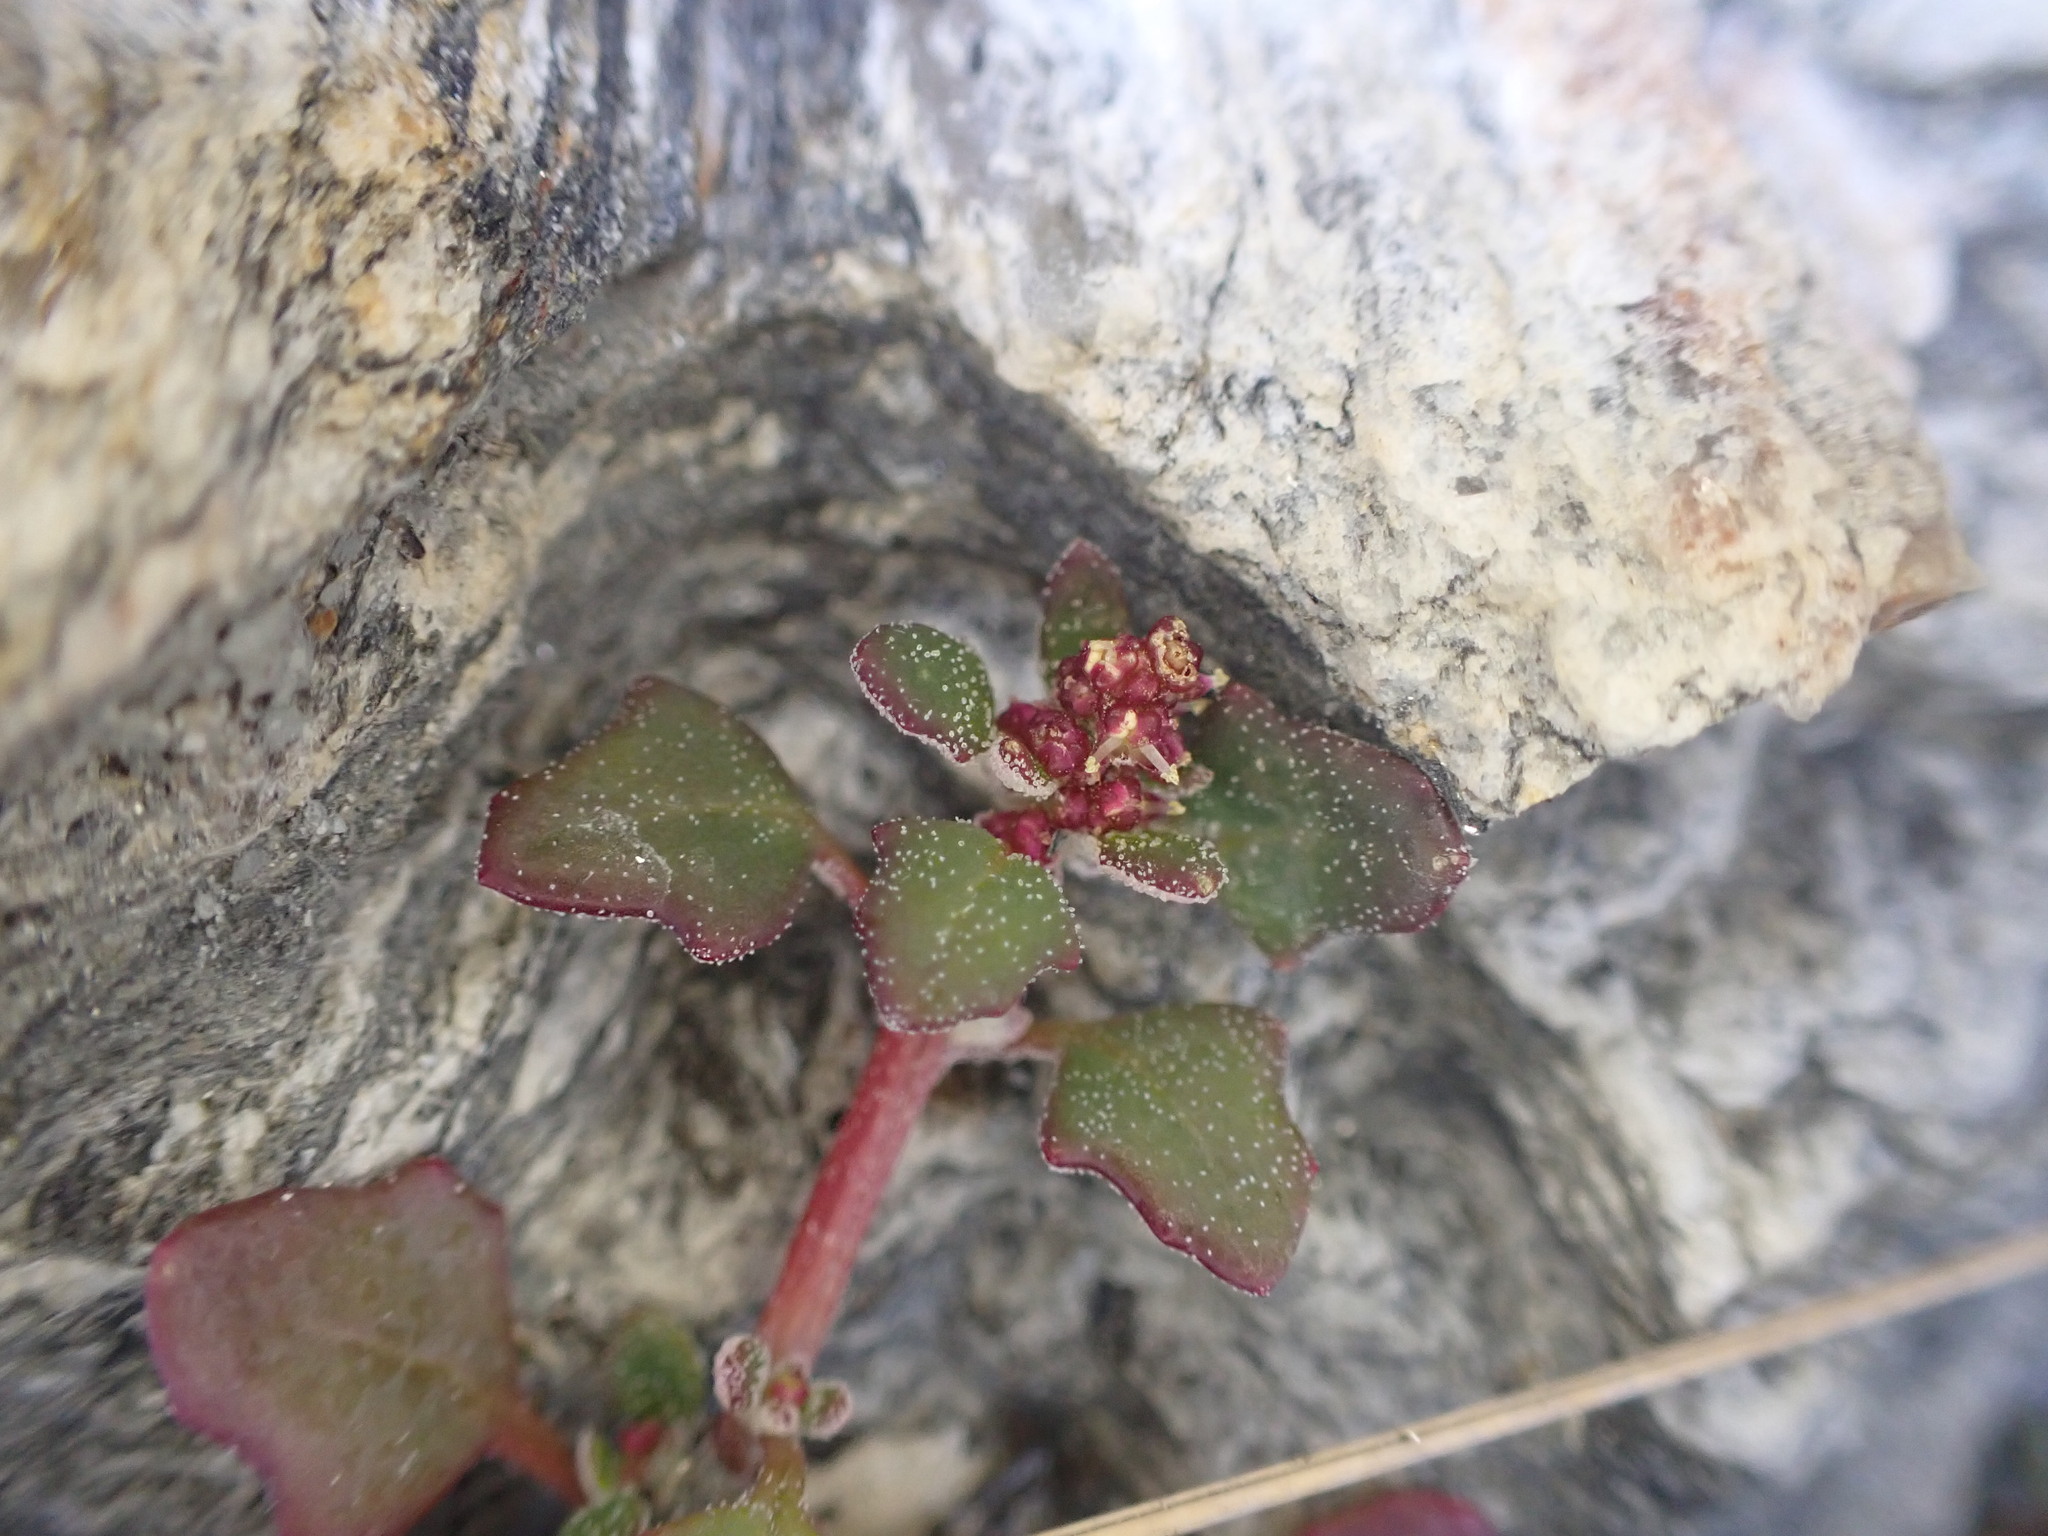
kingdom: Plantae
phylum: Tracheophyta
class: Magnoliopsida
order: Caryophyllales
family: Amaranthaceae
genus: Oxybasis
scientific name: Oxybasis ambigua
